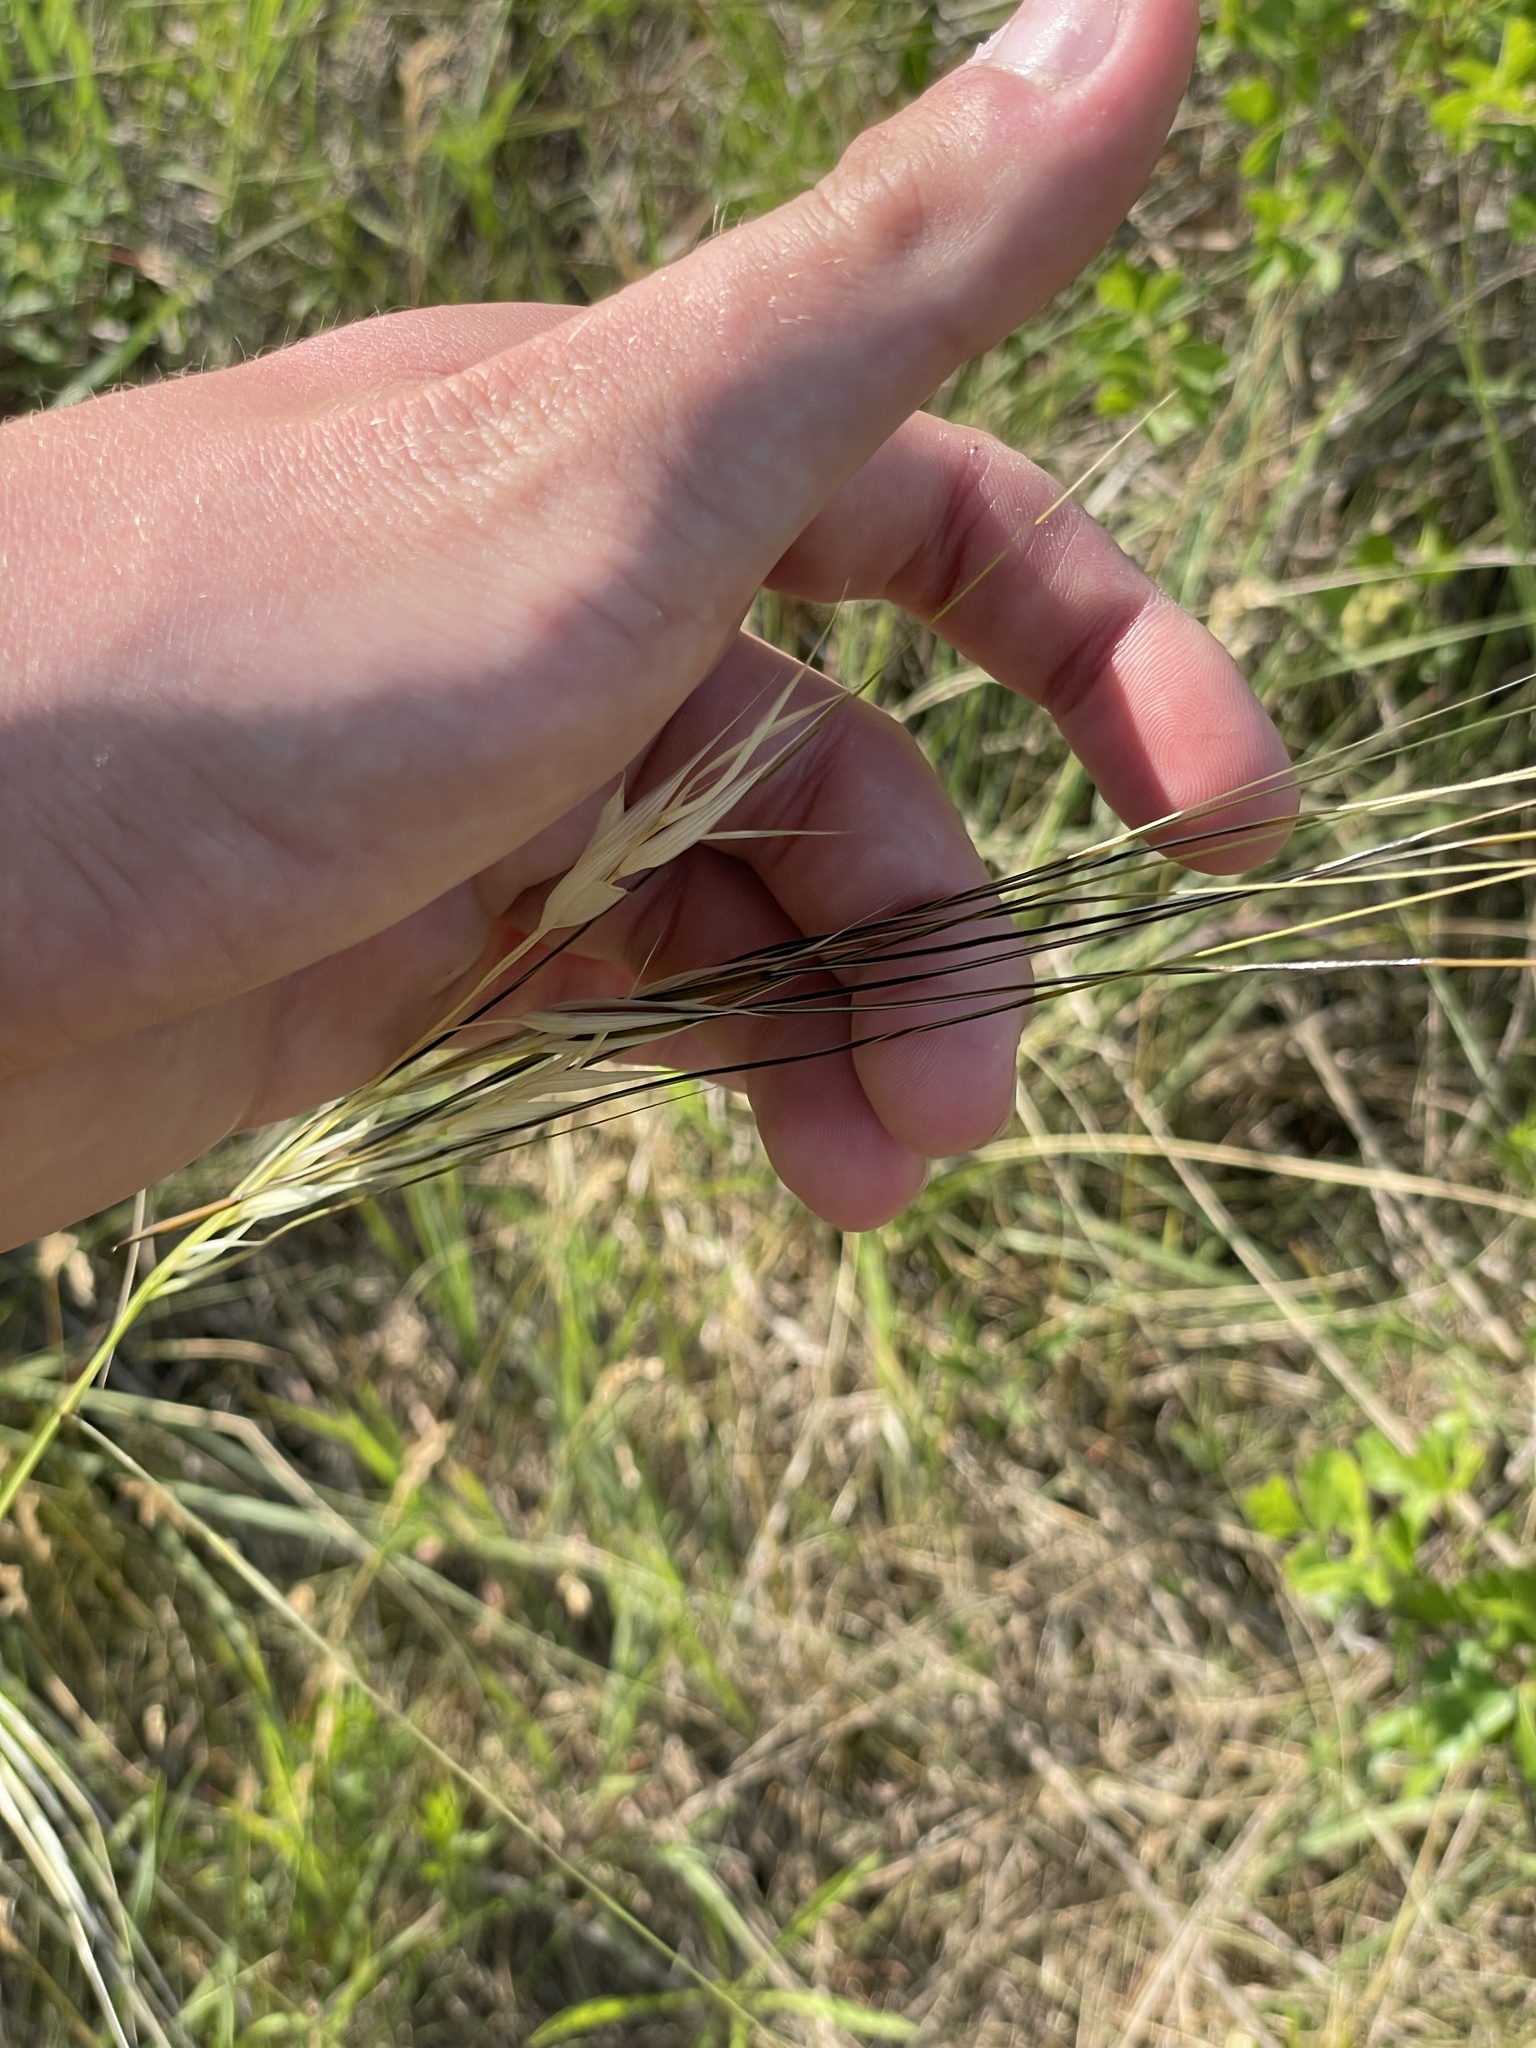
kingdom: Plantae
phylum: Tracheophyta
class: Liliopsida
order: Poales
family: Poaceae
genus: Hesperostipa
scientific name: Hesperostipa spartea
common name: Porcupine grass
